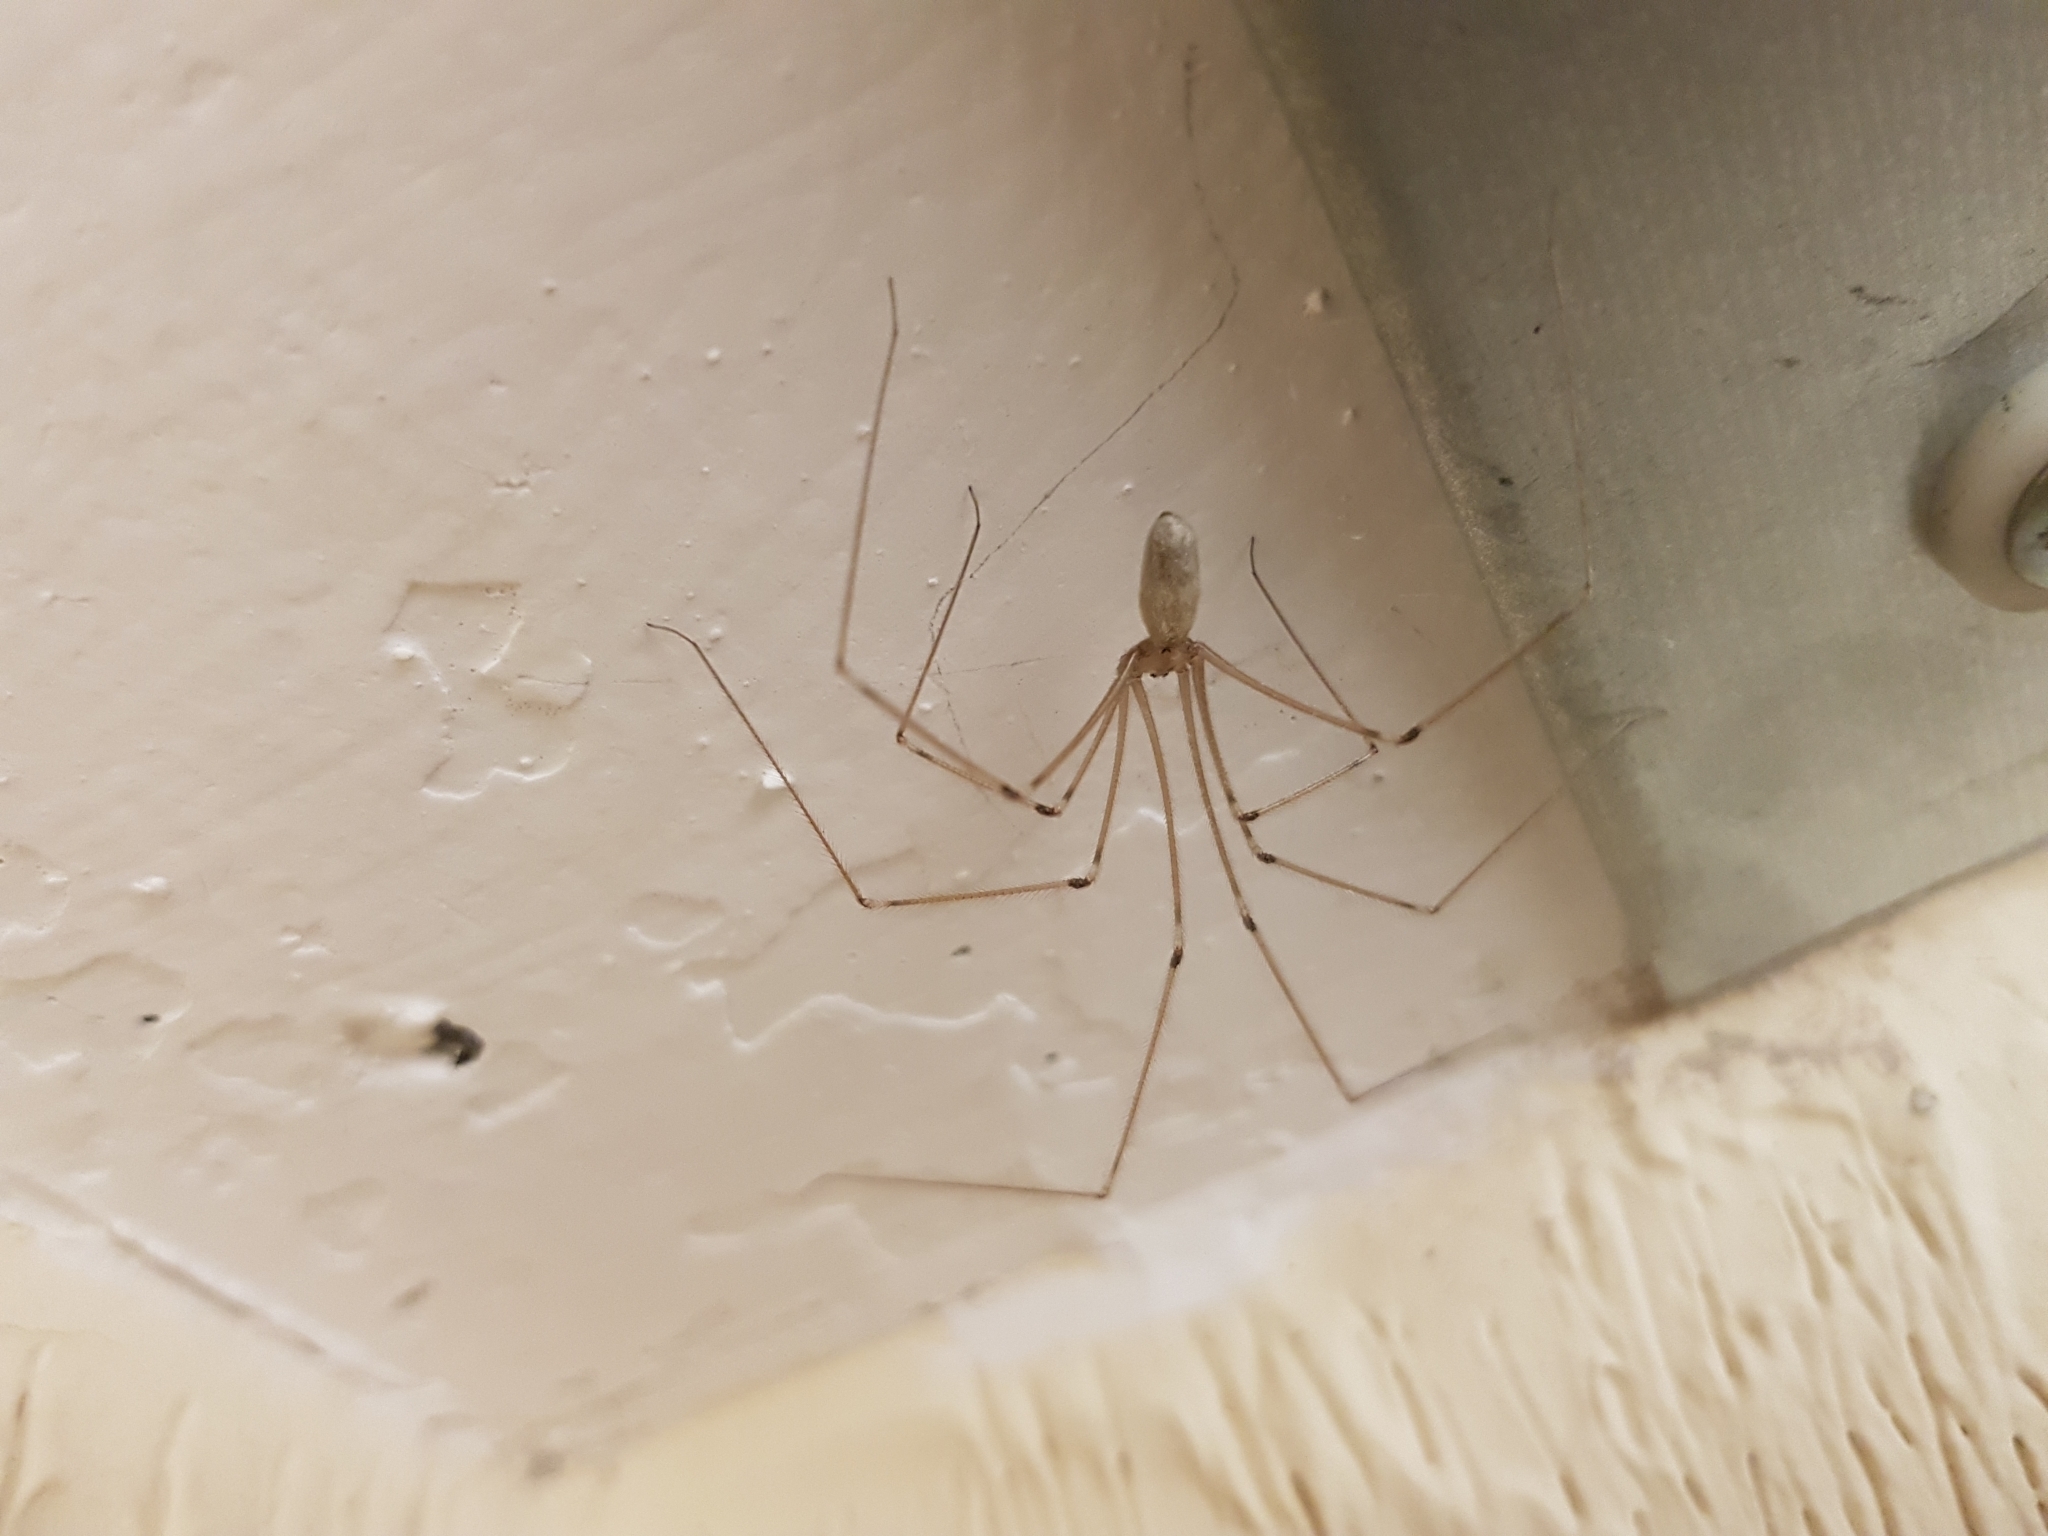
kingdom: Animalia
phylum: Arthropoda
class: Arachnida
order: Araneae
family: Pholcidae
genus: Pholcus
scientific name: Pholcus phalangioides
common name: Longbodied cellar spider
